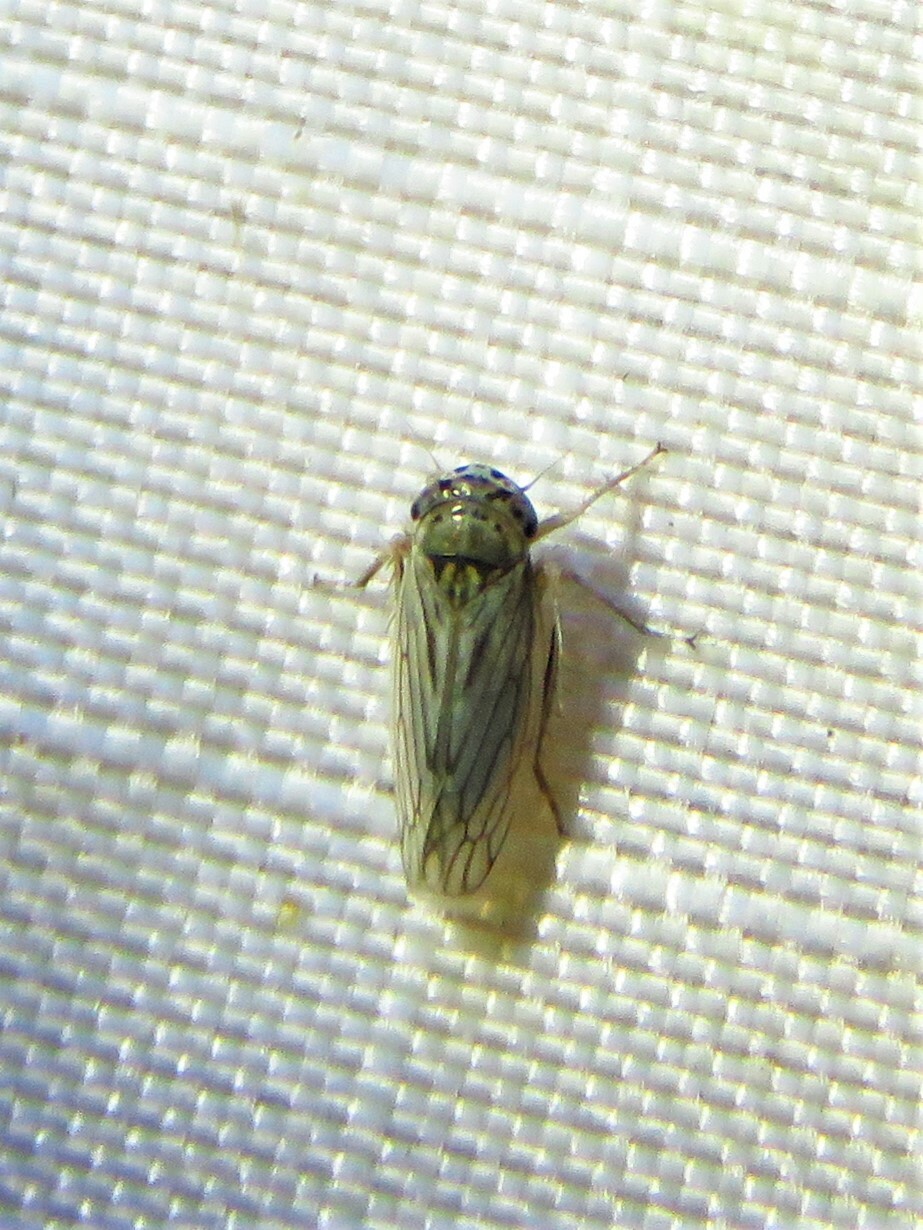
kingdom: Animalia
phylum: Arthropoda
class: Insecta
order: Hemiptera
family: Cicadellidae
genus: Exitianus
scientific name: Exitianus exitiosus
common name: Gray lawn leafhopper
